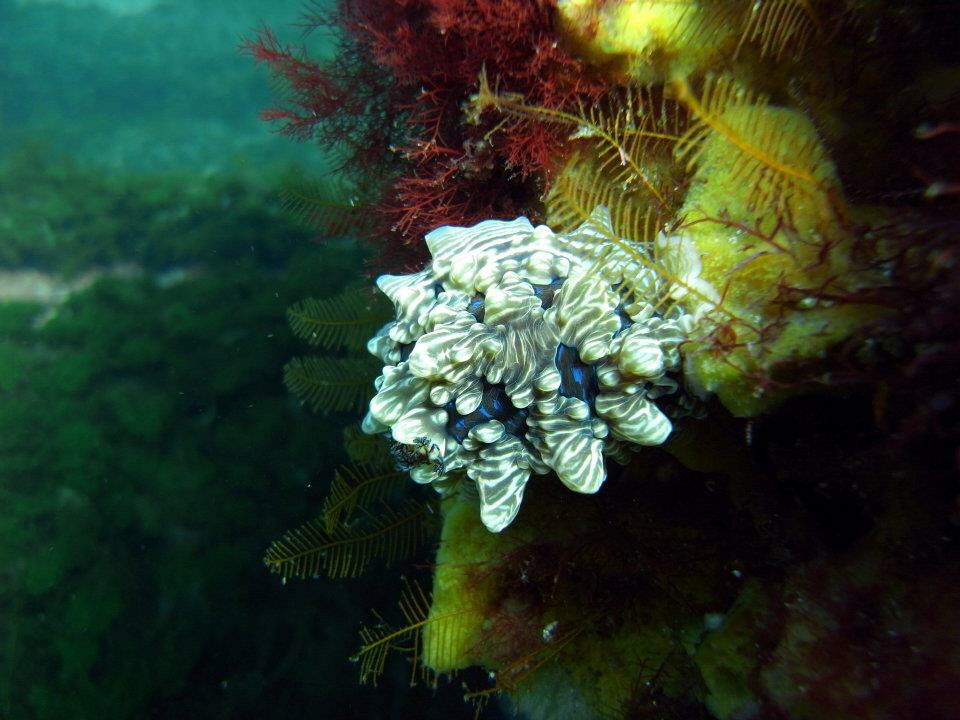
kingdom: Animalia
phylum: Mollusca
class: Gastropoda
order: Nudibranchia
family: Dendrodorididae
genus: Dendrodoris
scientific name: Dendrodoris krusensternii
